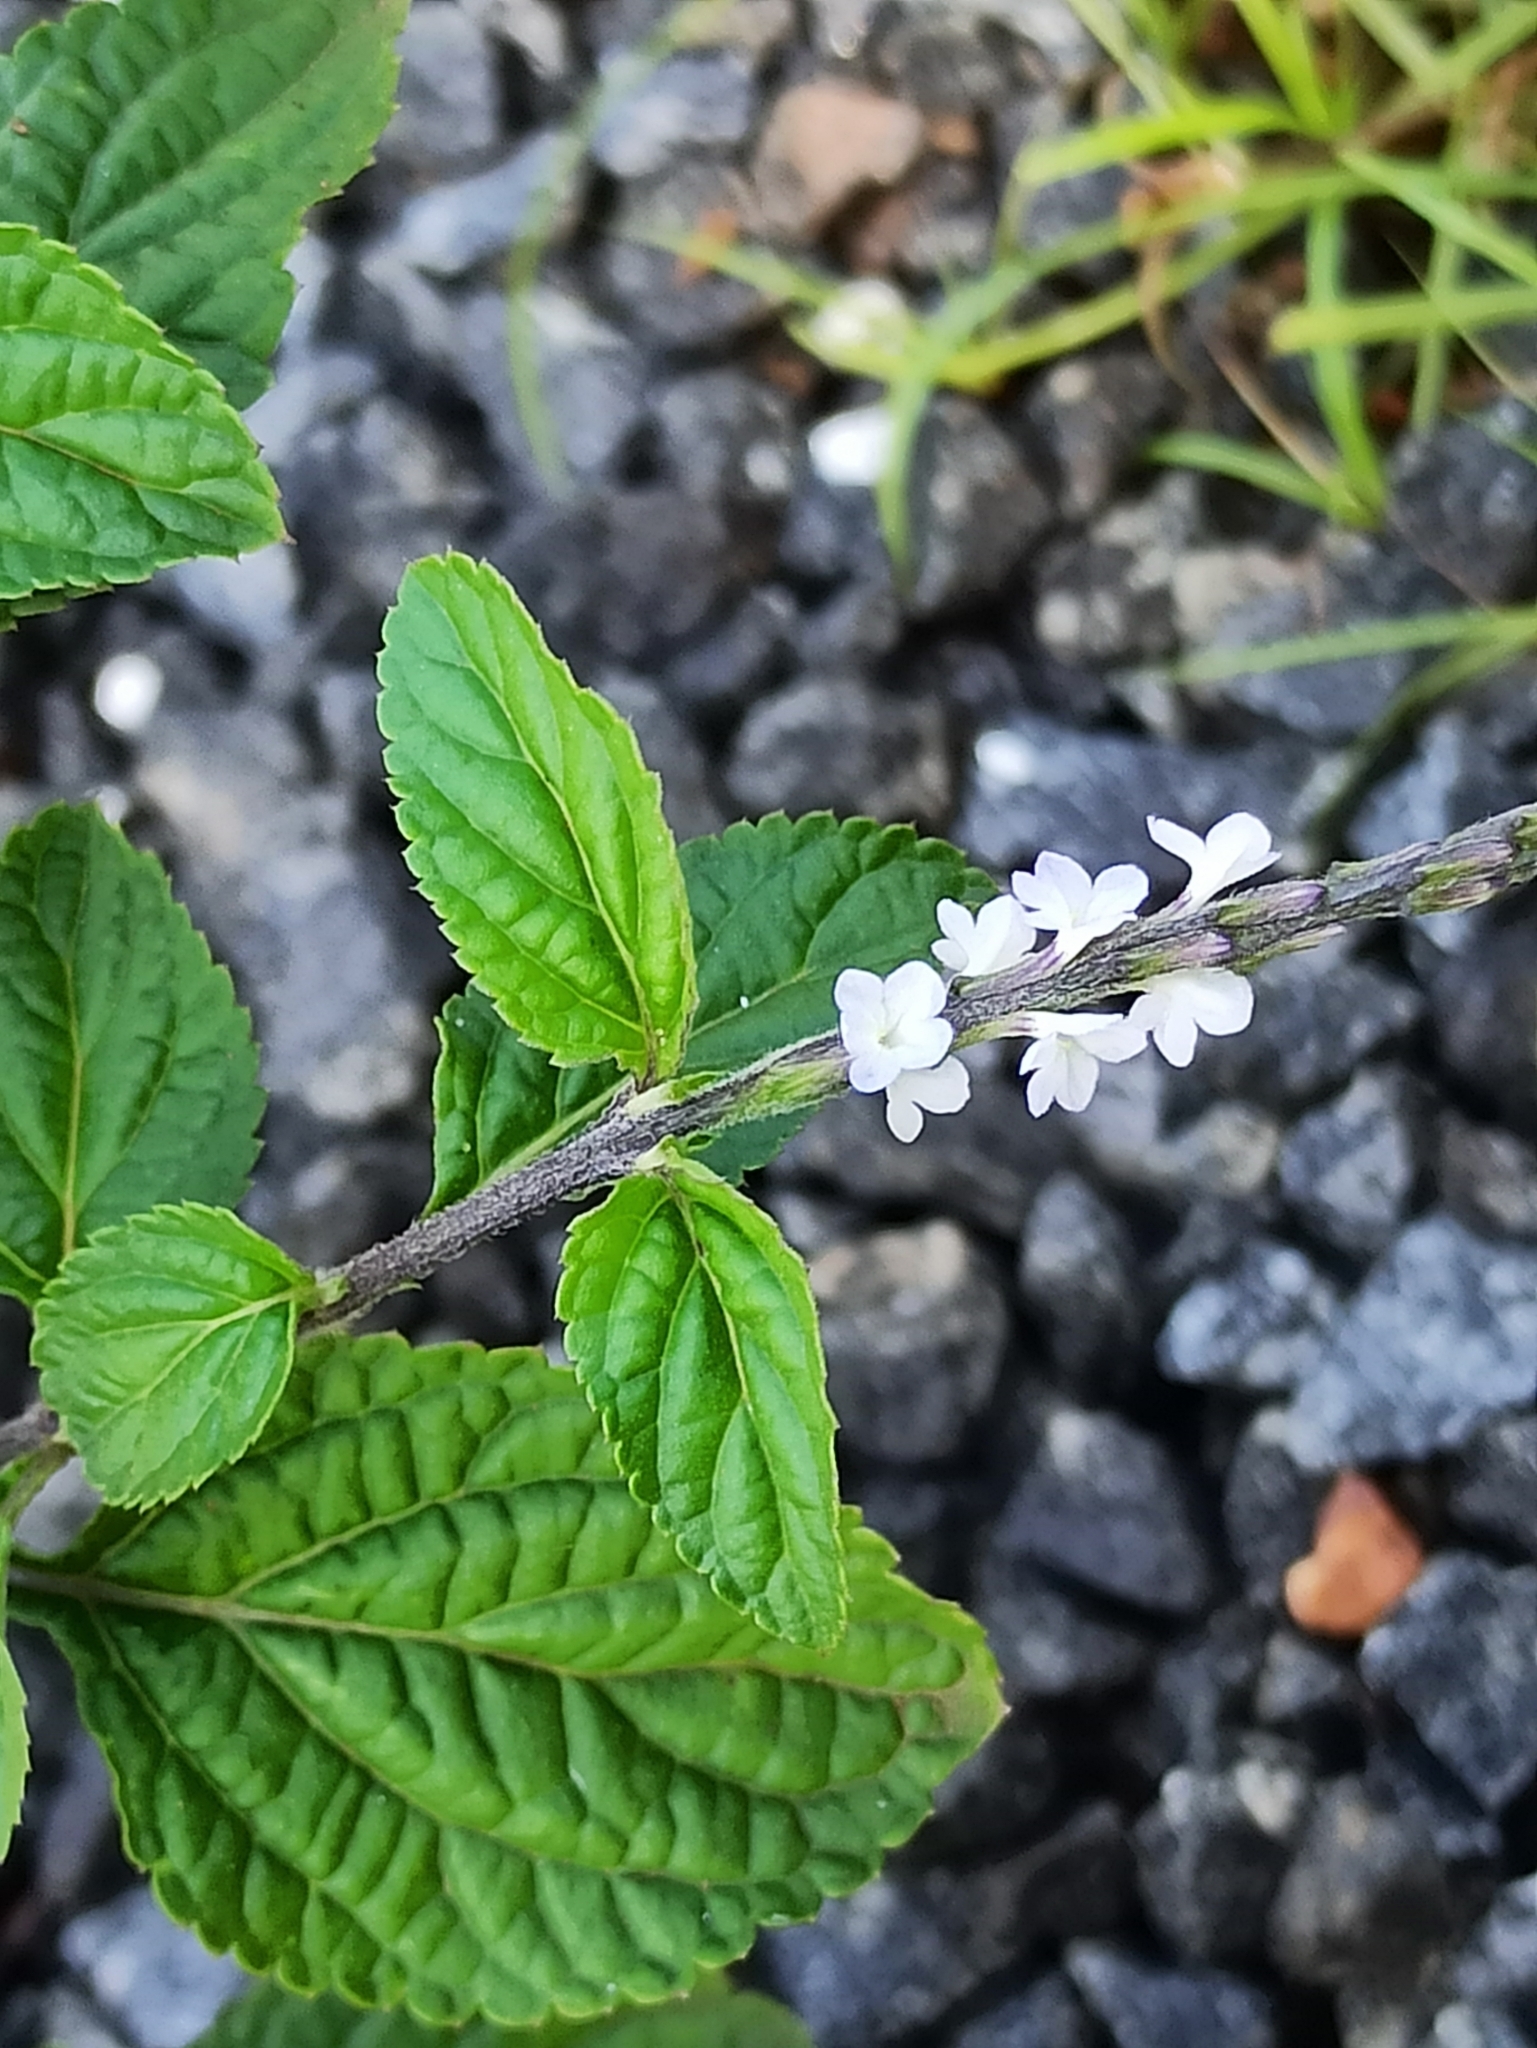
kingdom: Plantae
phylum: Tracheophyta
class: Magnoliopsida
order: Lamiales
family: Verbenaceae
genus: Stachytarpheta
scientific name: Stachytarpheta cayennensis
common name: Cayenne porterweed
